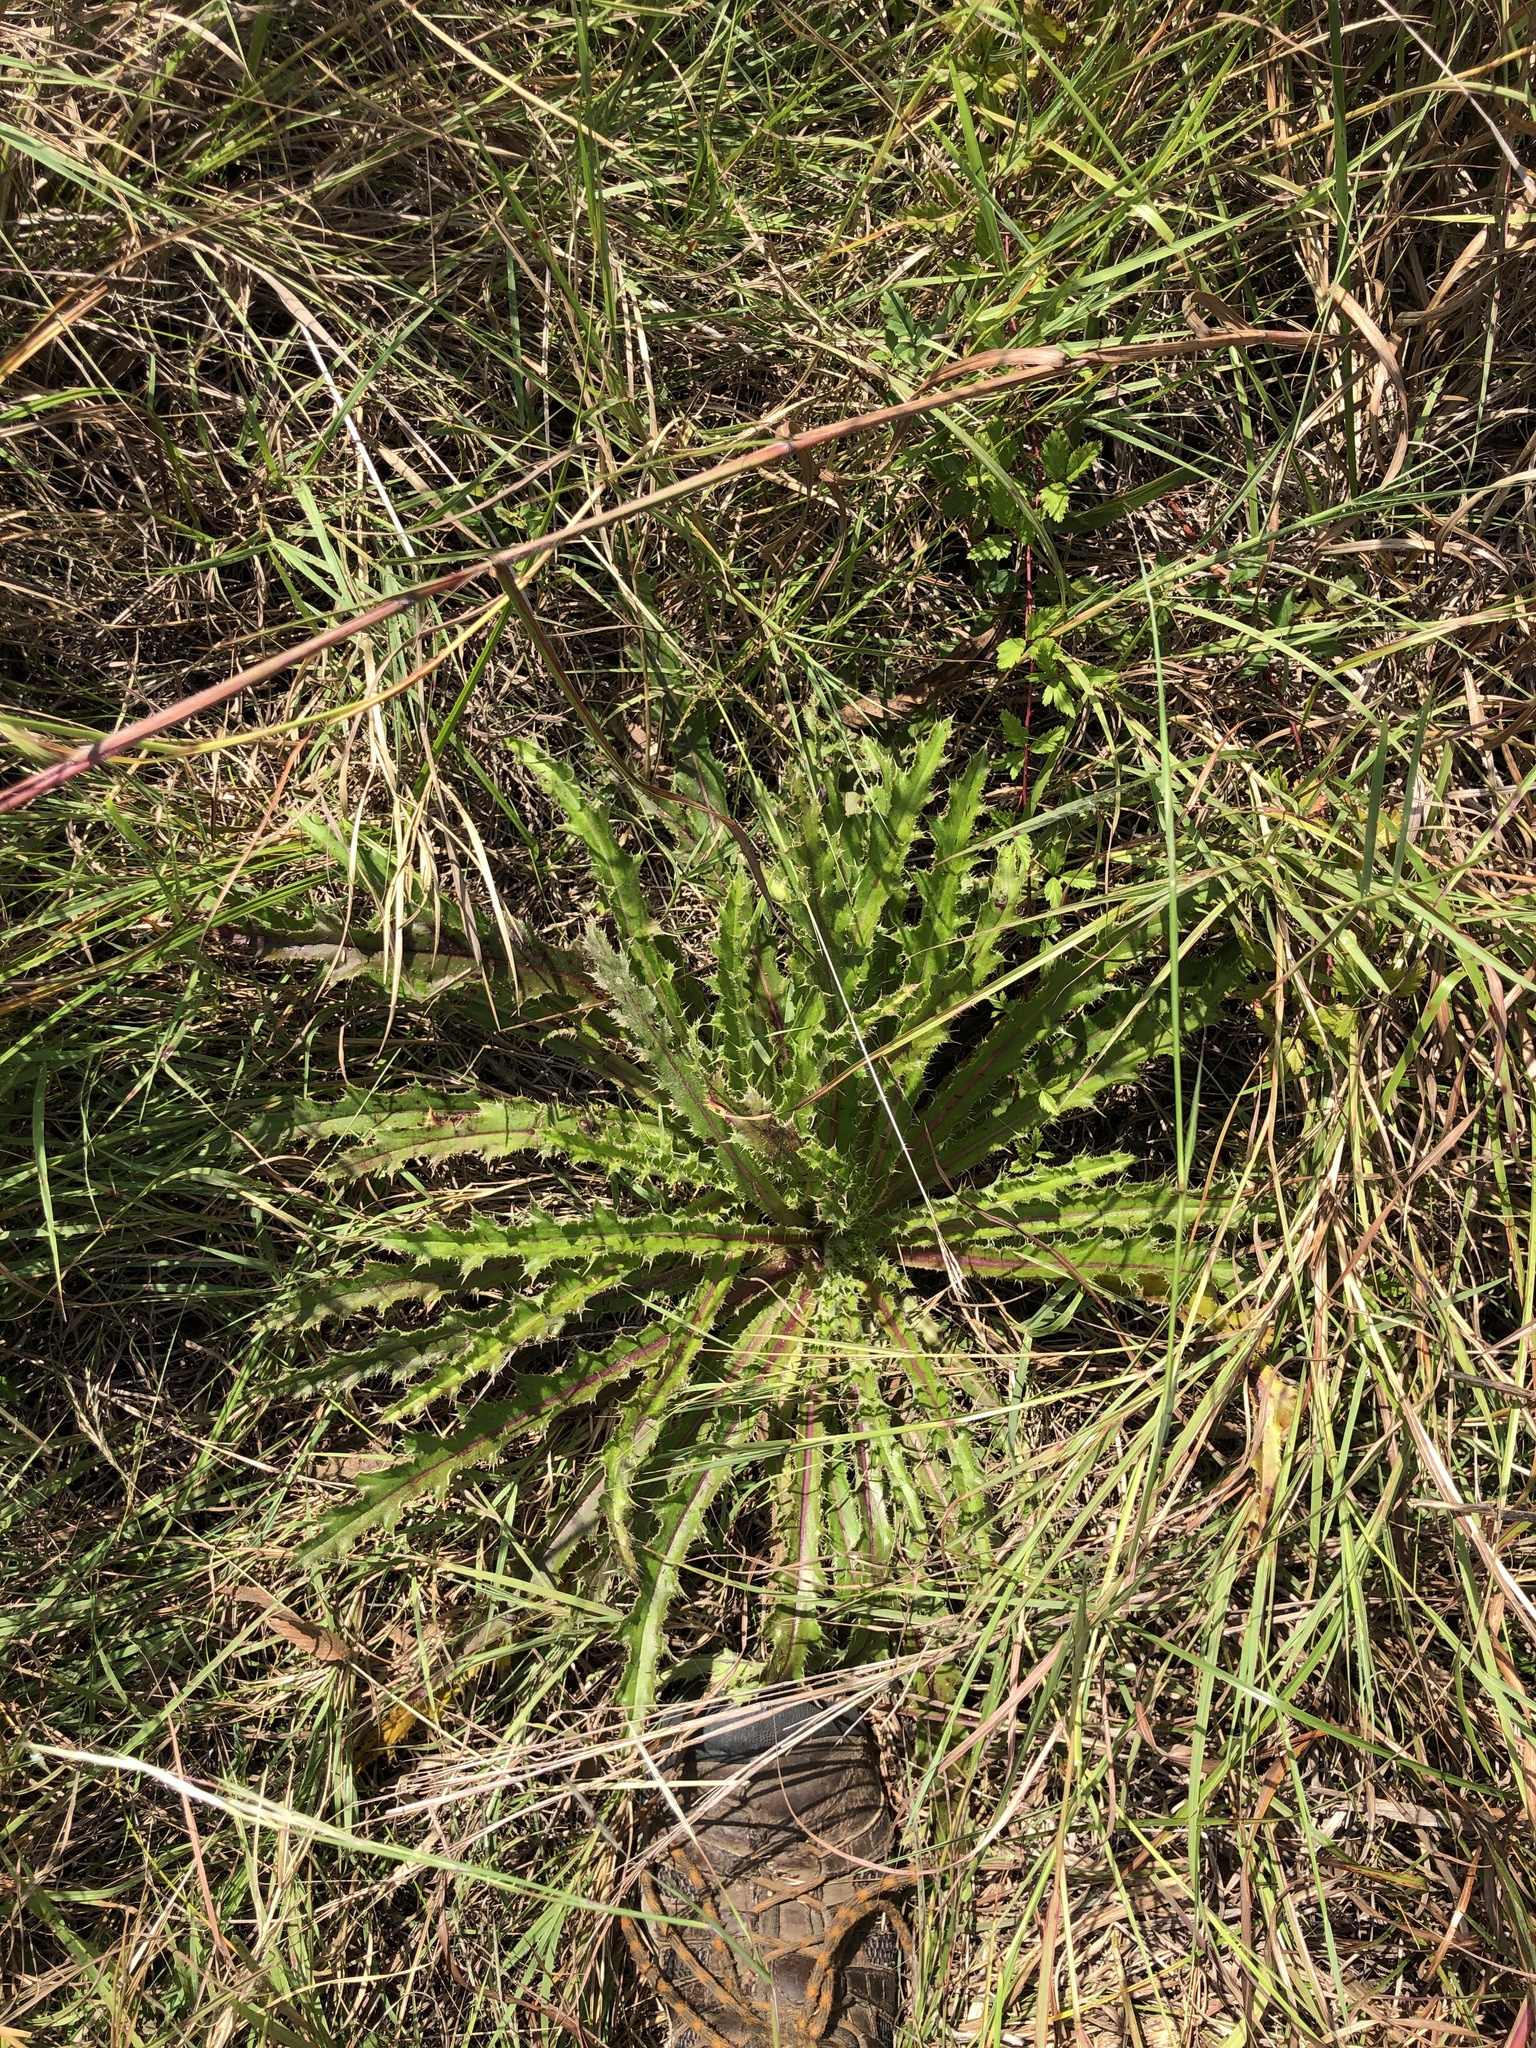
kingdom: Plantae
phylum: Tracheophyta
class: Magnoliopsida
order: Asterales
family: Asteraceae
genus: Cirsium
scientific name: Cirsium horridulum
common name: Bristly thistle
